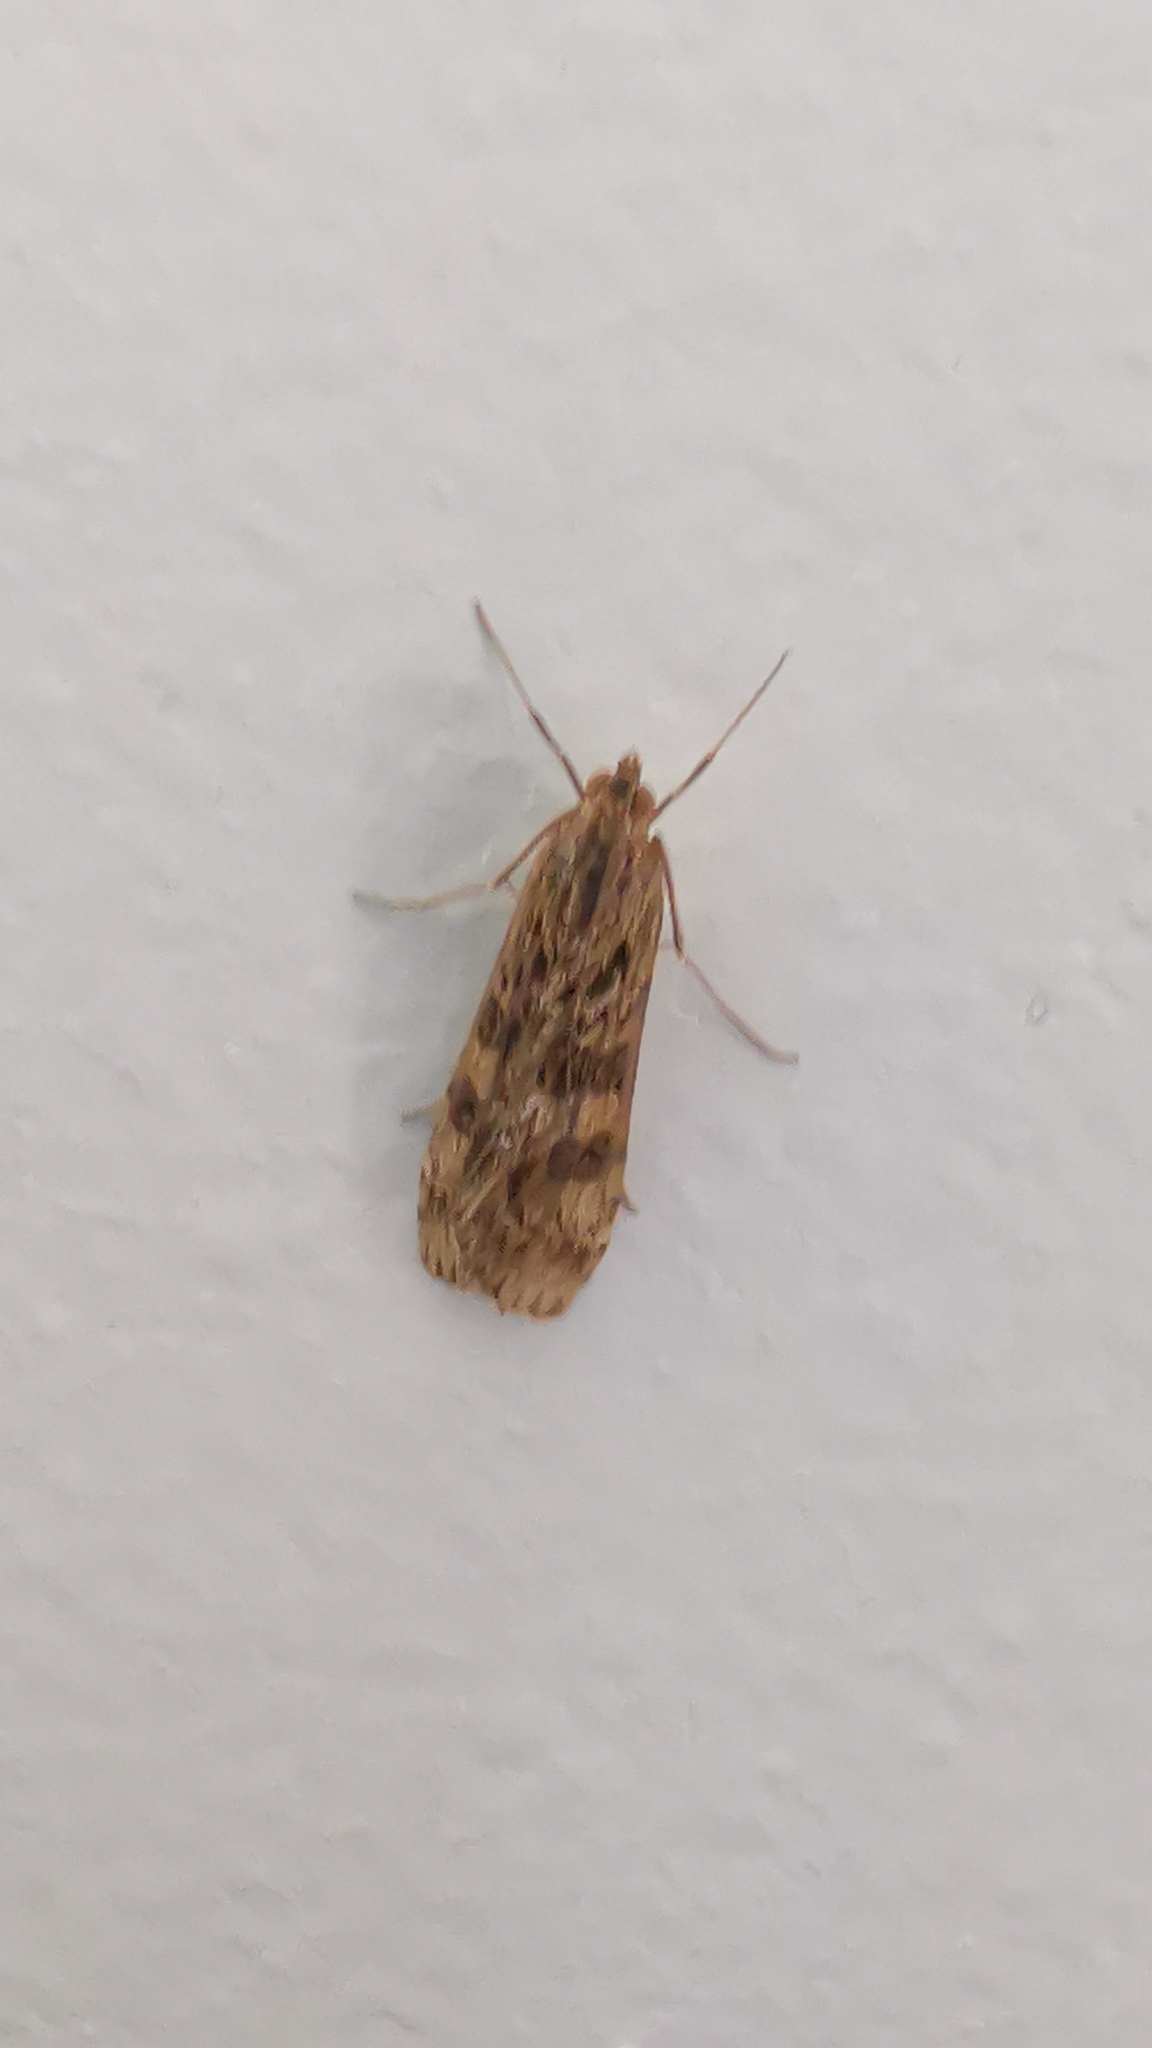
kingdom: Animalia
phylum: Arthropoda
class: Insecta
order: Lepidoptera
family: Crambidae
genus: Nomophila
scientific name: Nomophila noctuella
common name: Rush veneer
